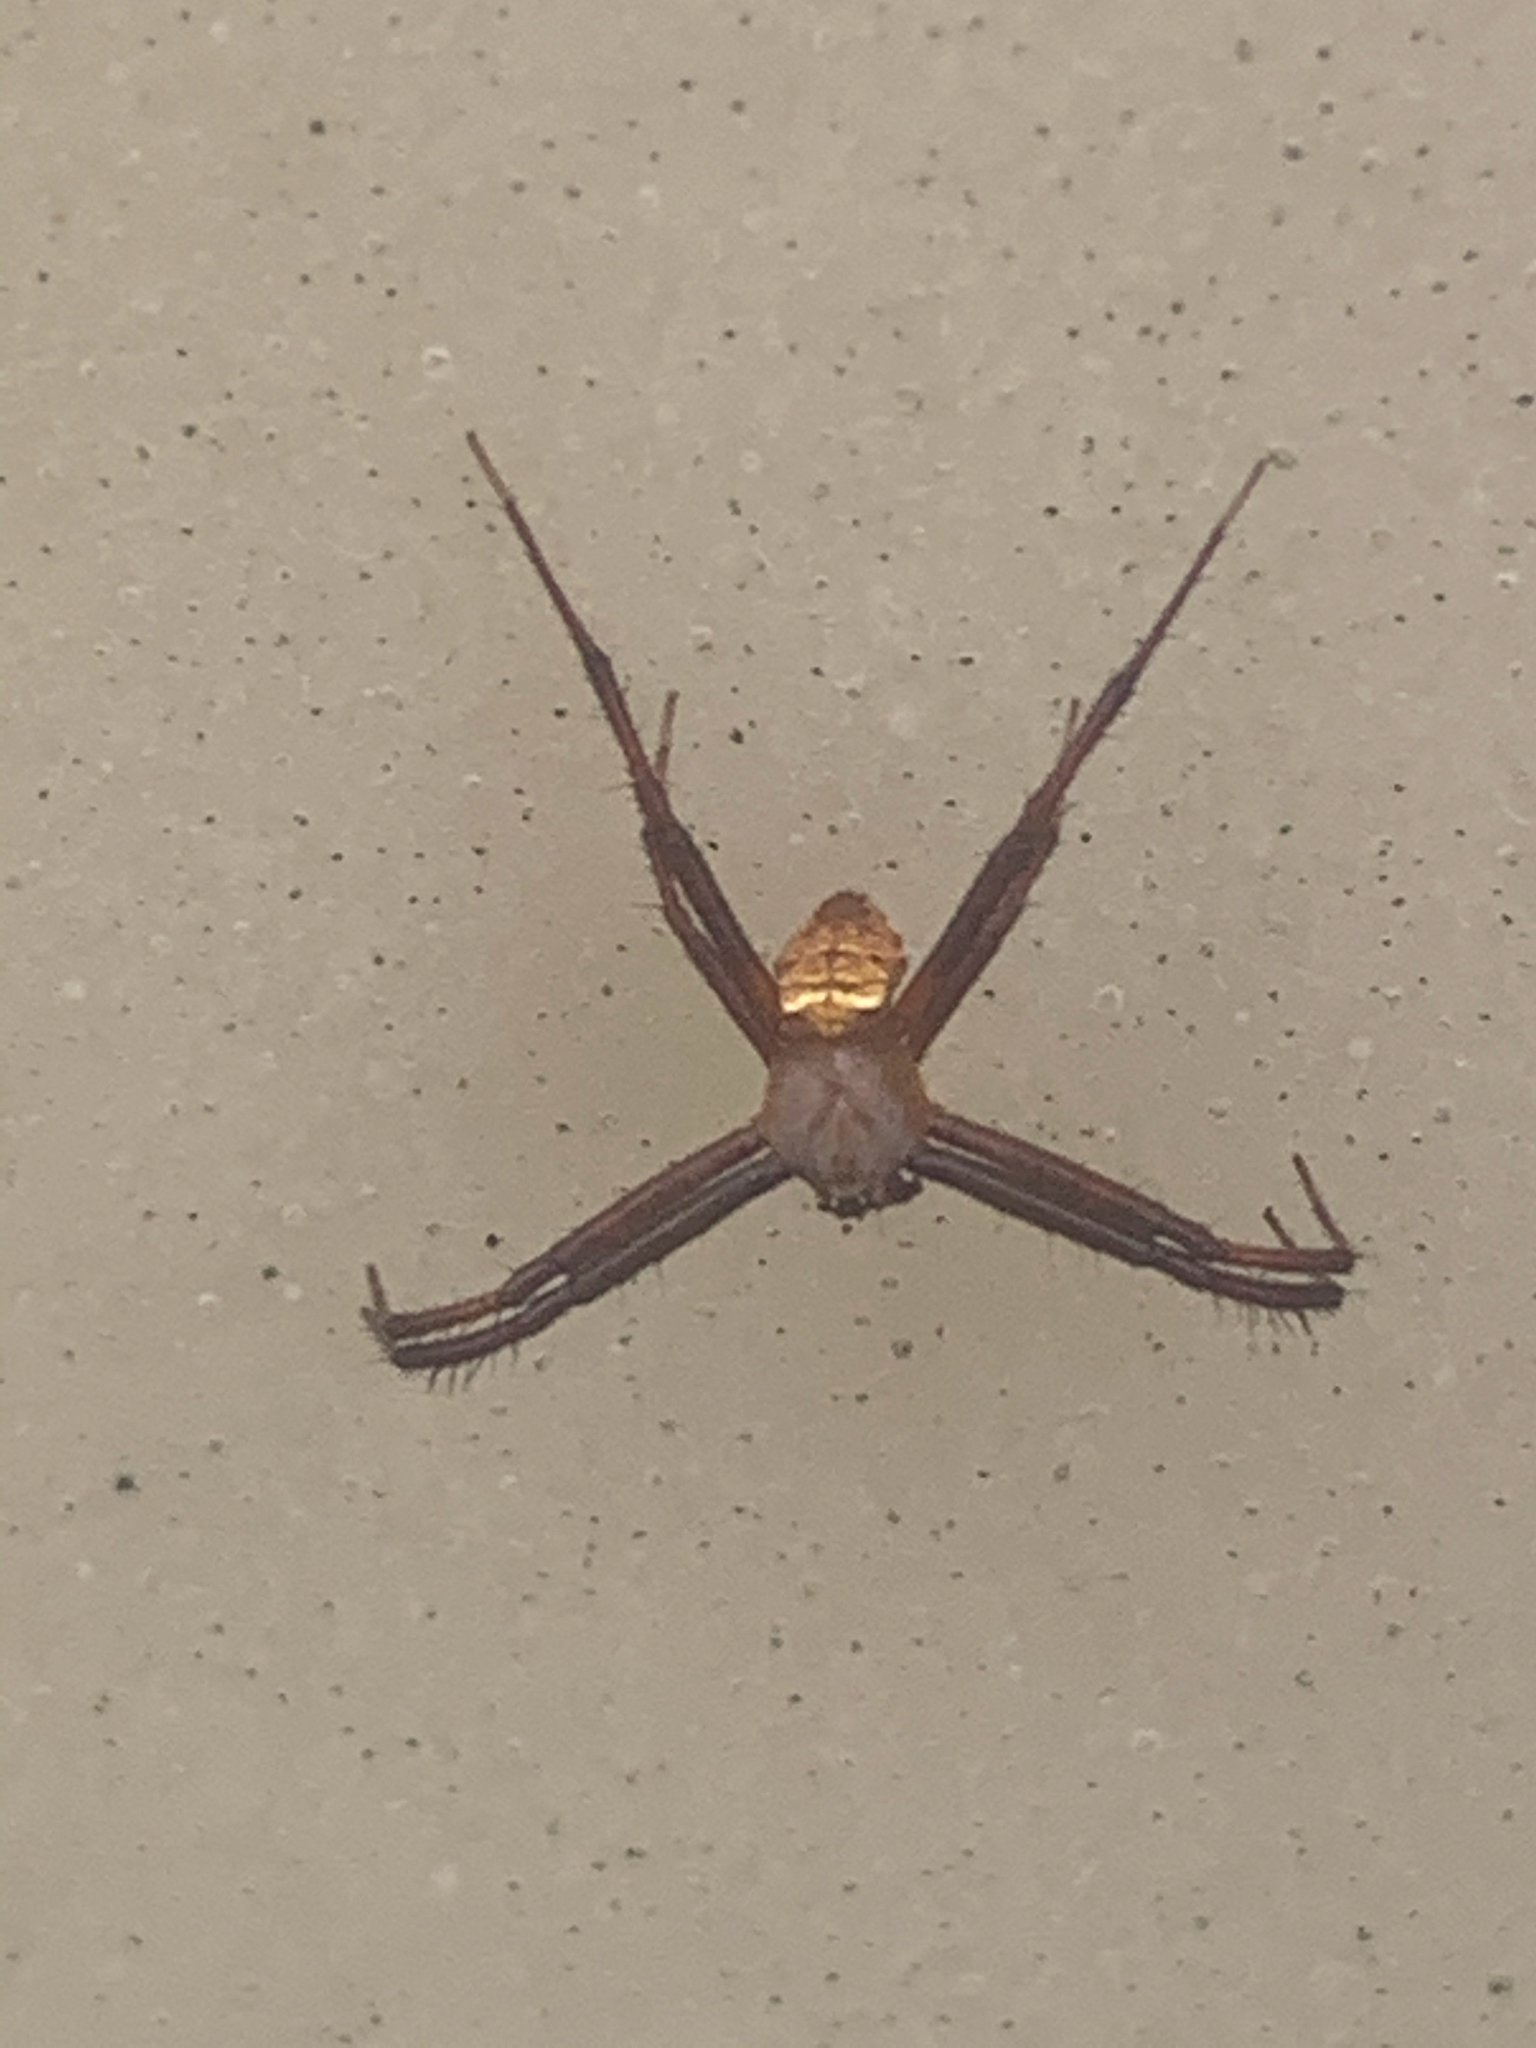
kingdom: Animalia
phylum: Arthropoda
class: Arachnida
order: Araneae
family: Araneidae
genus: Gea
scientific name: Gea heptagon
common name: Orb weavers
